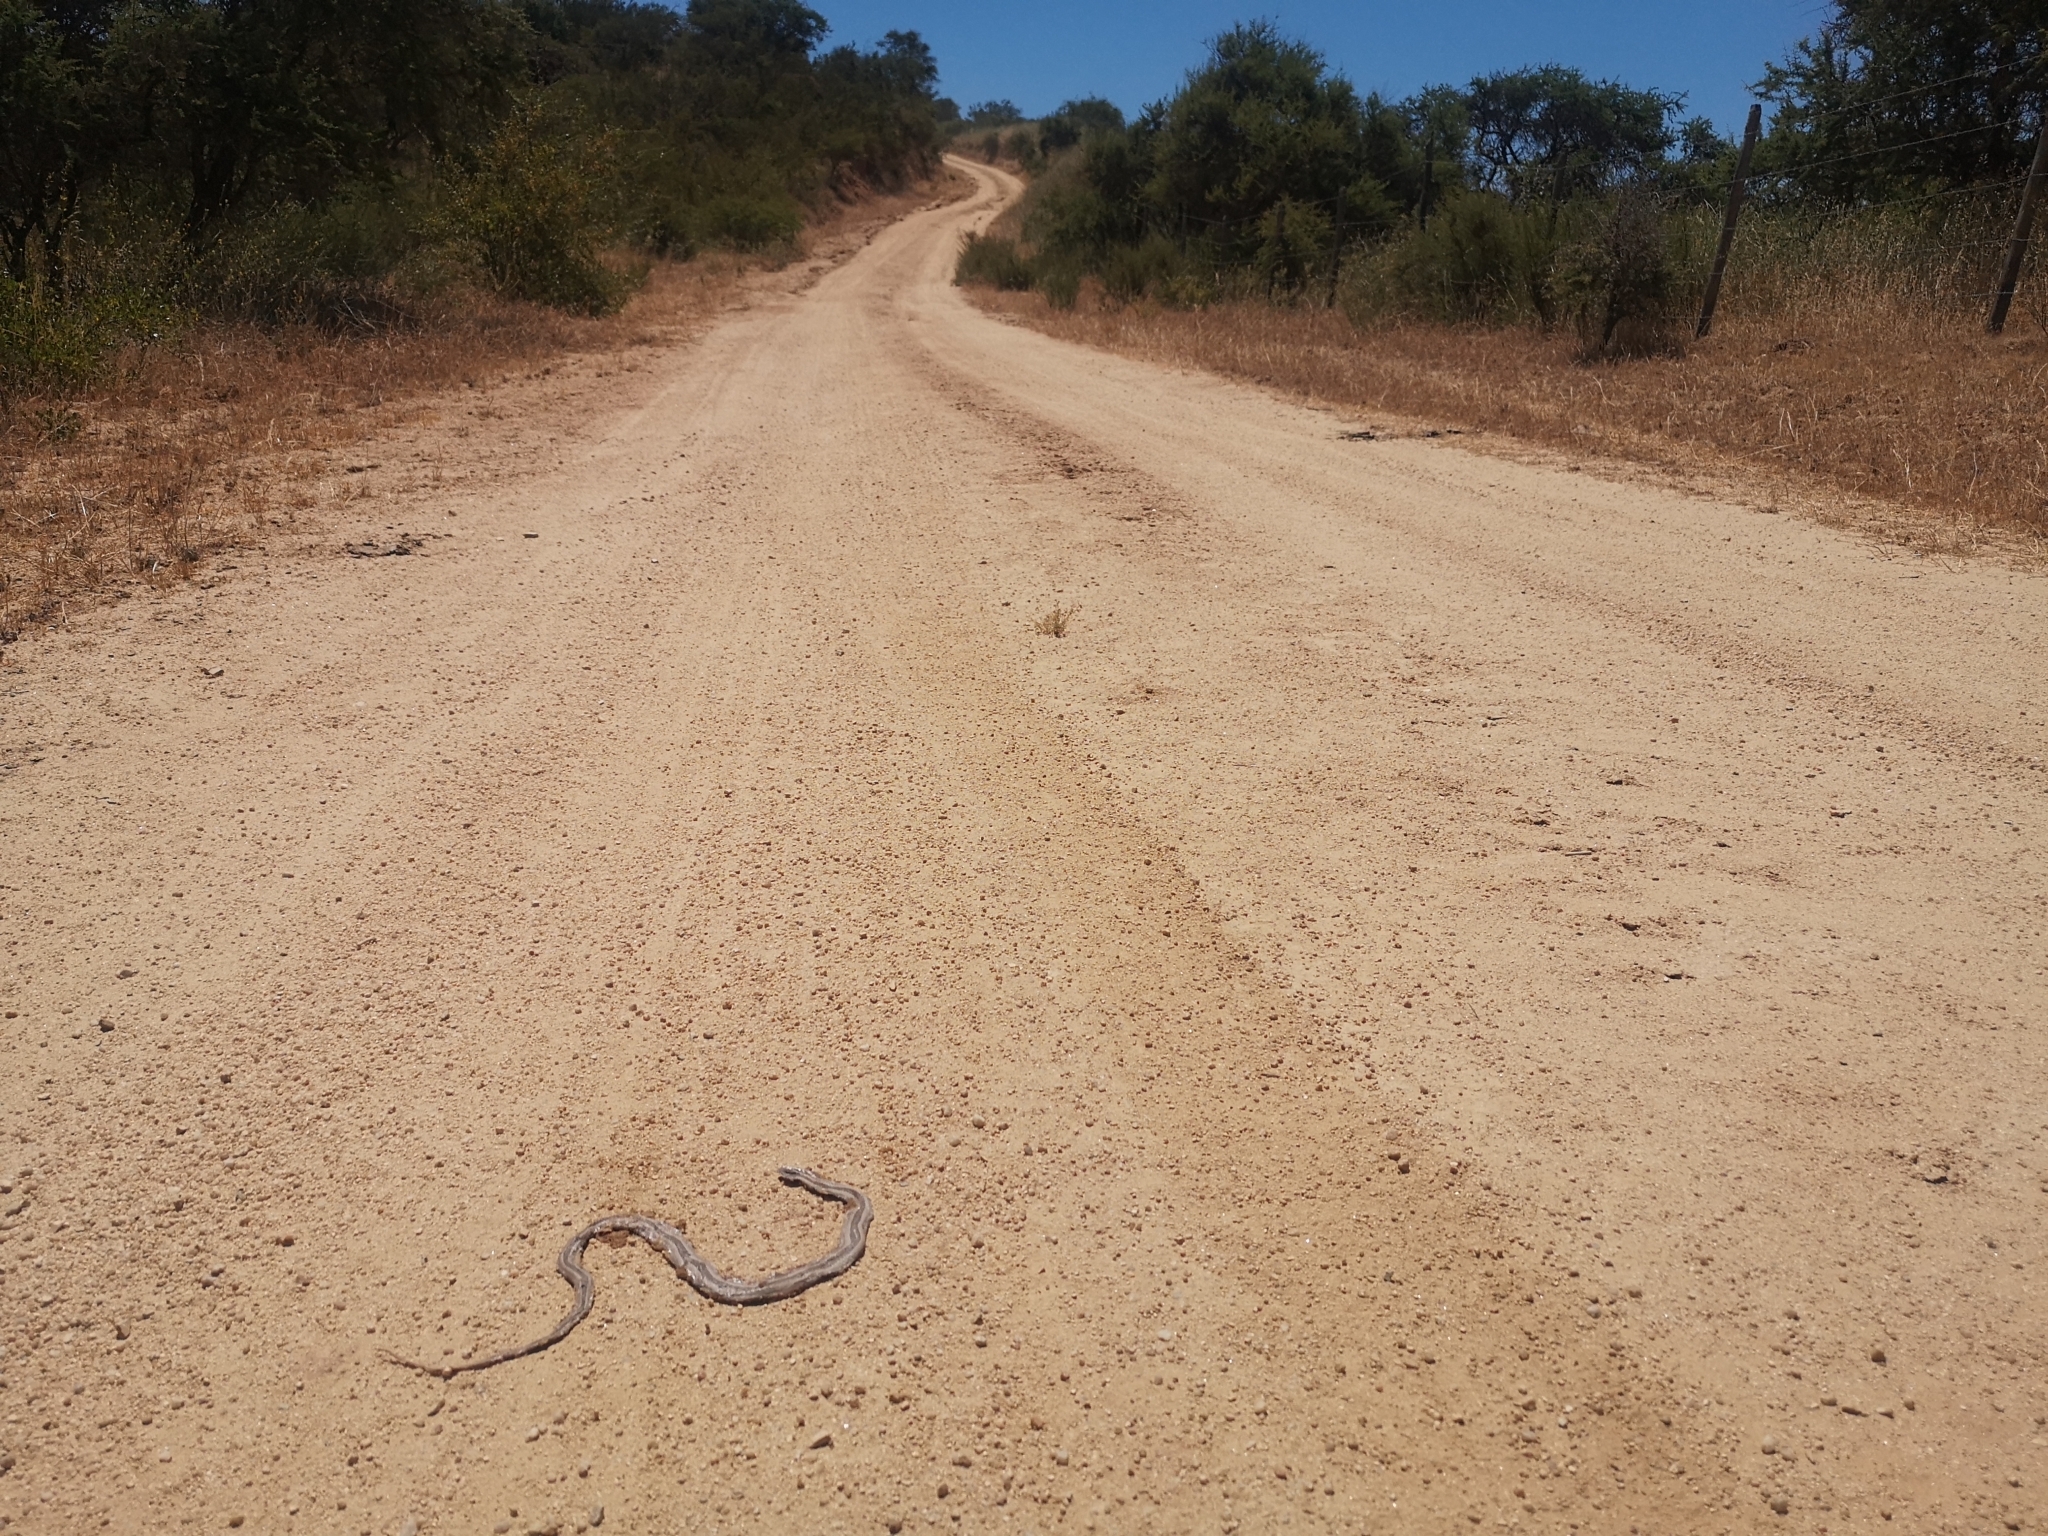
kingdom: Animalia
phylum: Chordata
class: Squamata
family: Colubridae
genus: Philodryas
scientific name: Philodryas chamissonis
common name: Chilean green racer
